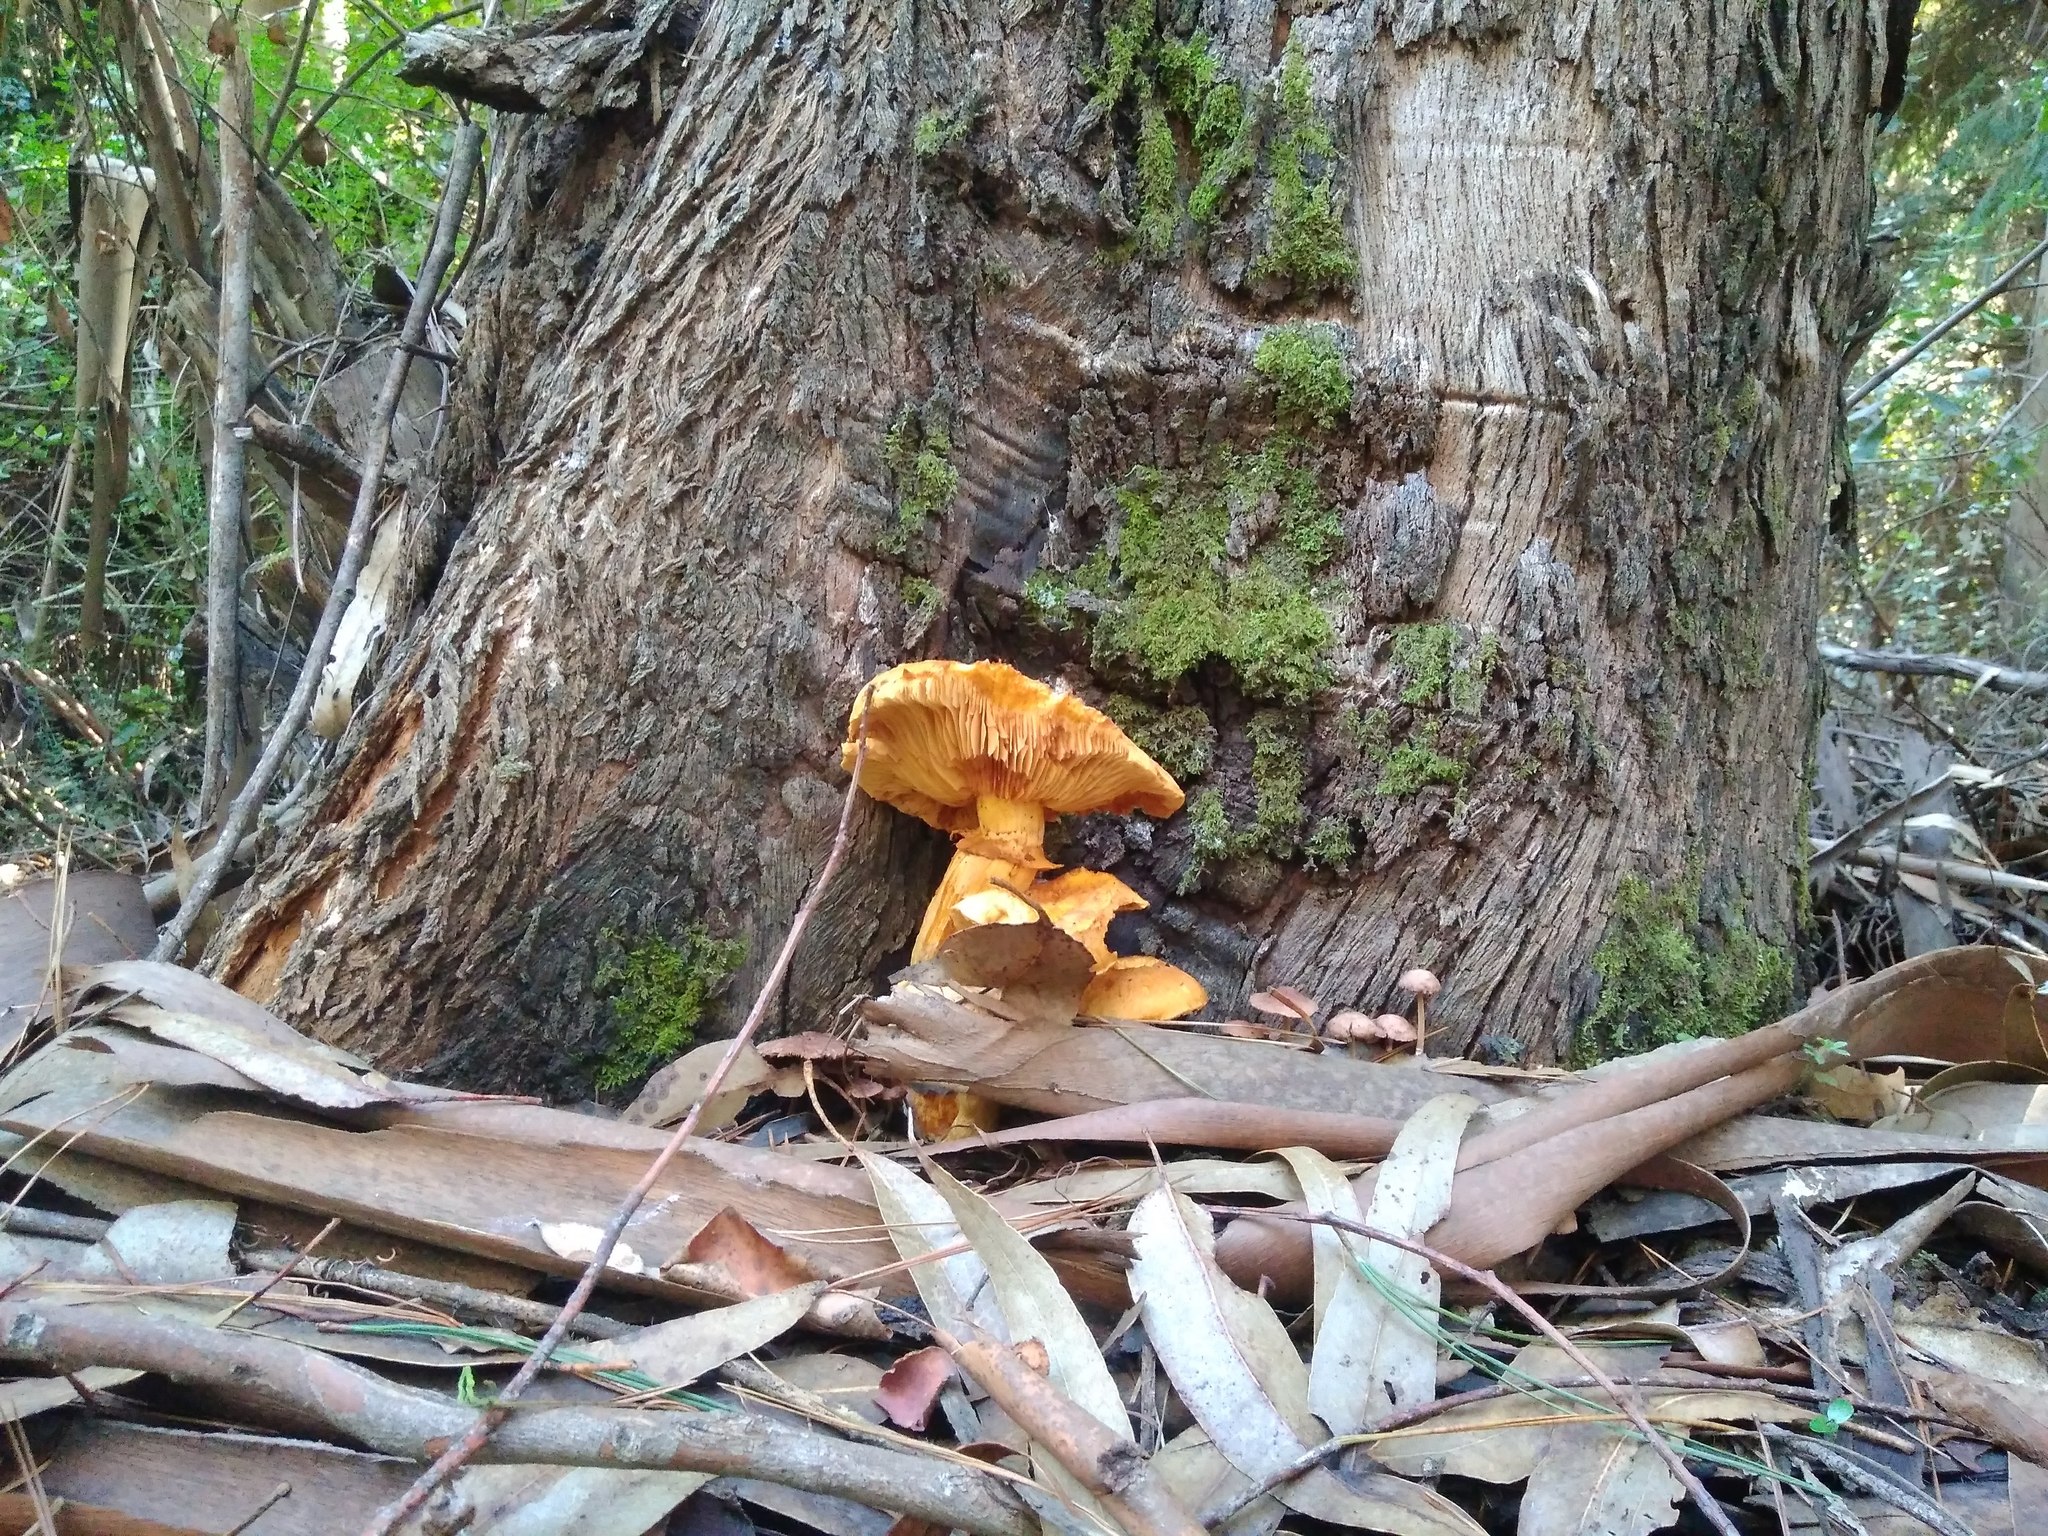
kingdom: Fungi
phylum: Basidiomycota
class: Agaricomycetes
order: Agaricales
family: Hymenogastraceae
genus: Gymnopilus
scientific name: Gymnopilus junonius
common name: Spectacular rustgill
